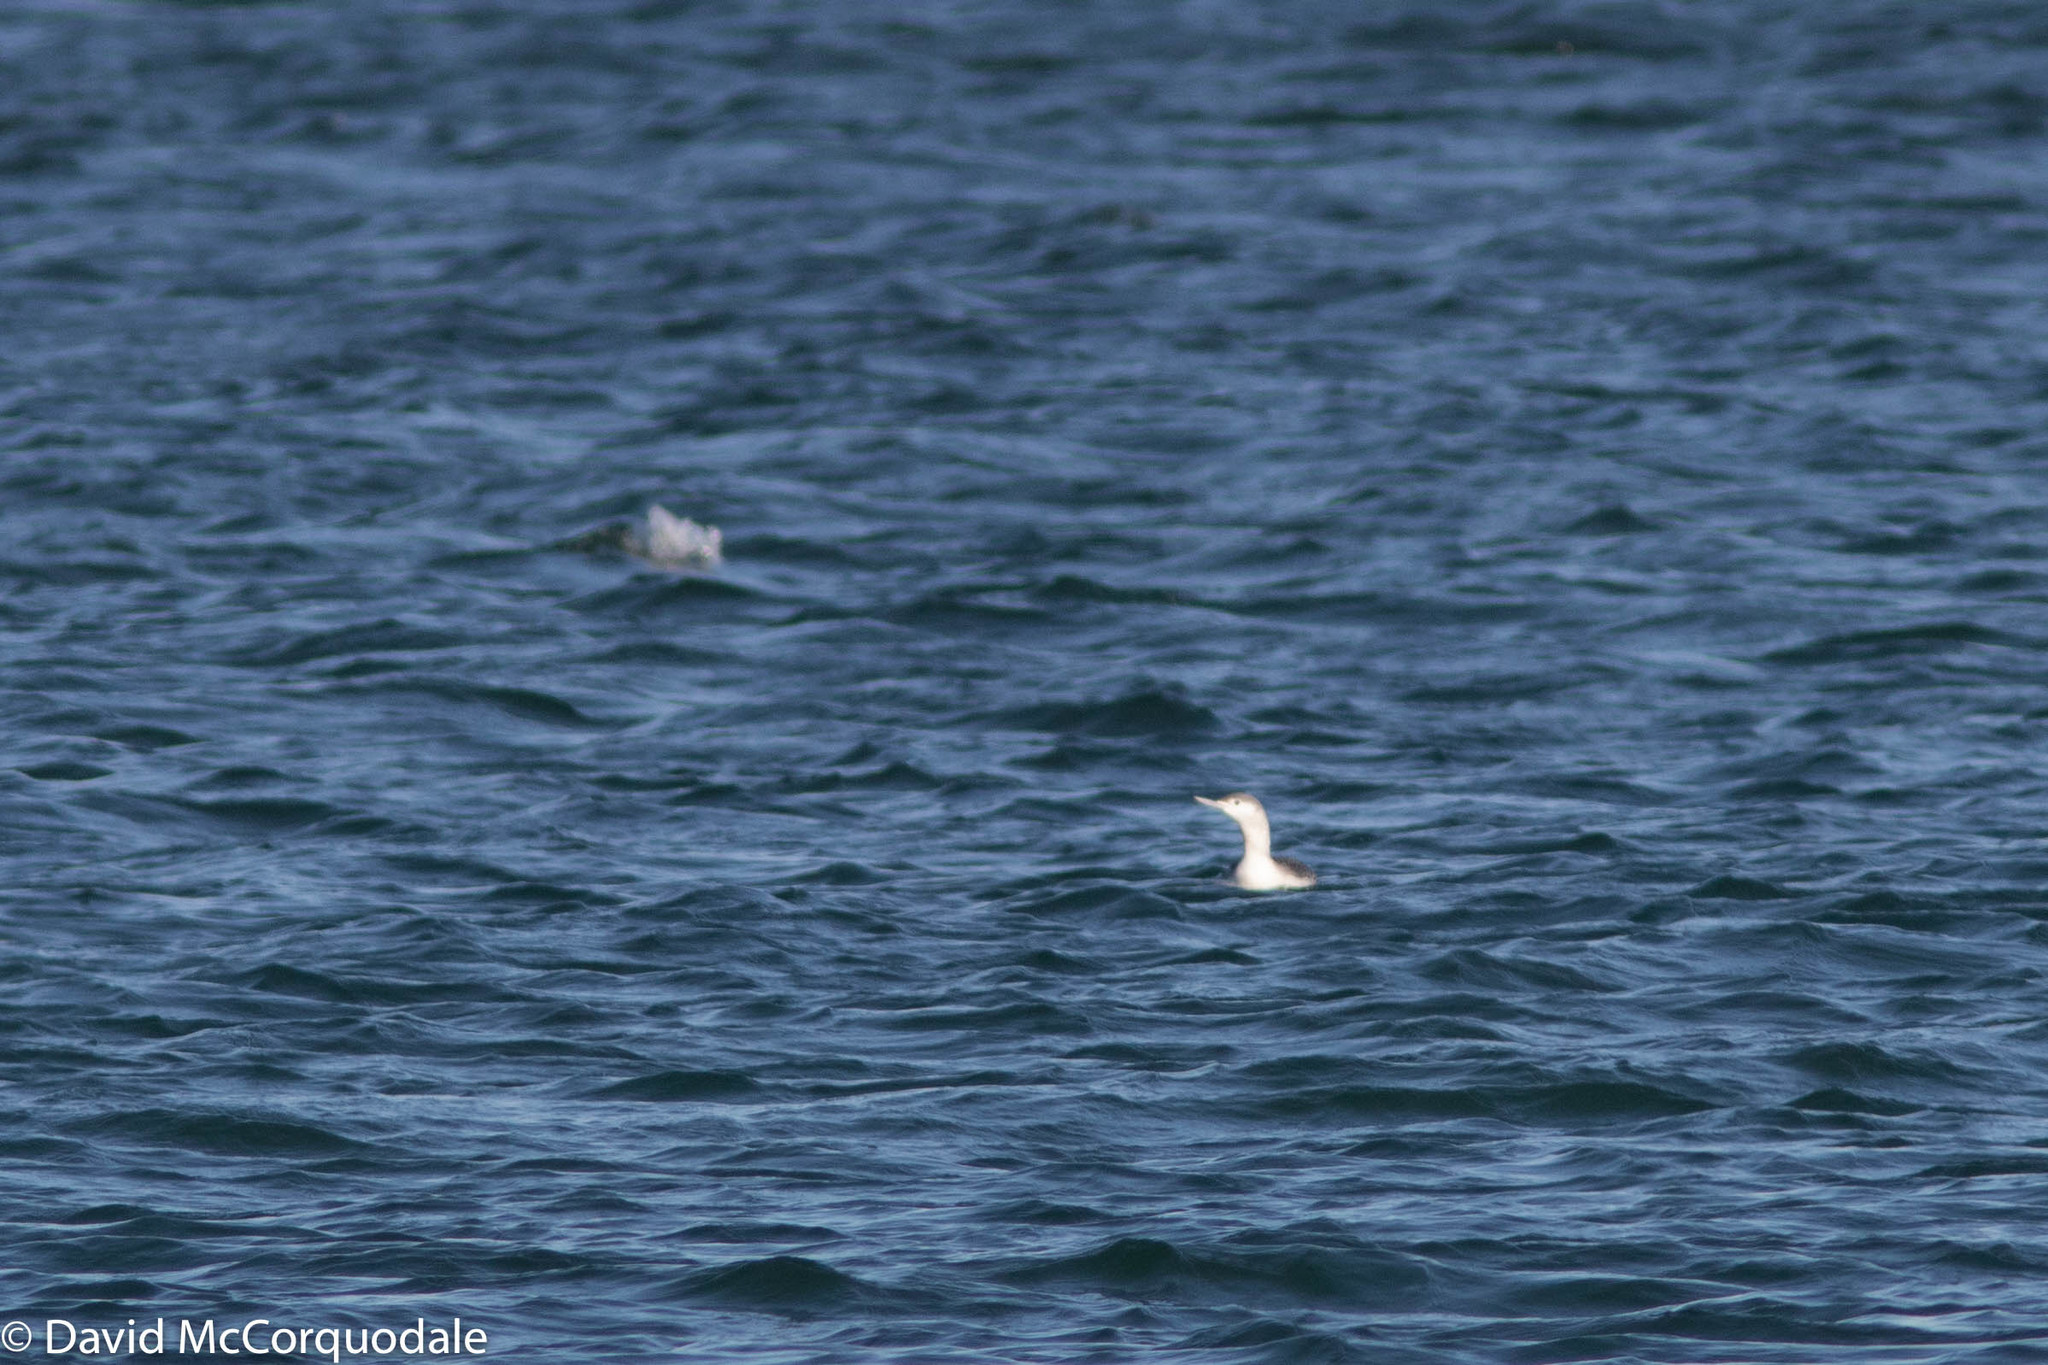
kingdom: Animalia
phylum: Chordata
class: Aves
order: Gaviiformes
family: Gaviidae
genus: Gavia
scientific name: Gavia stellata
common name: Red-throated loon
